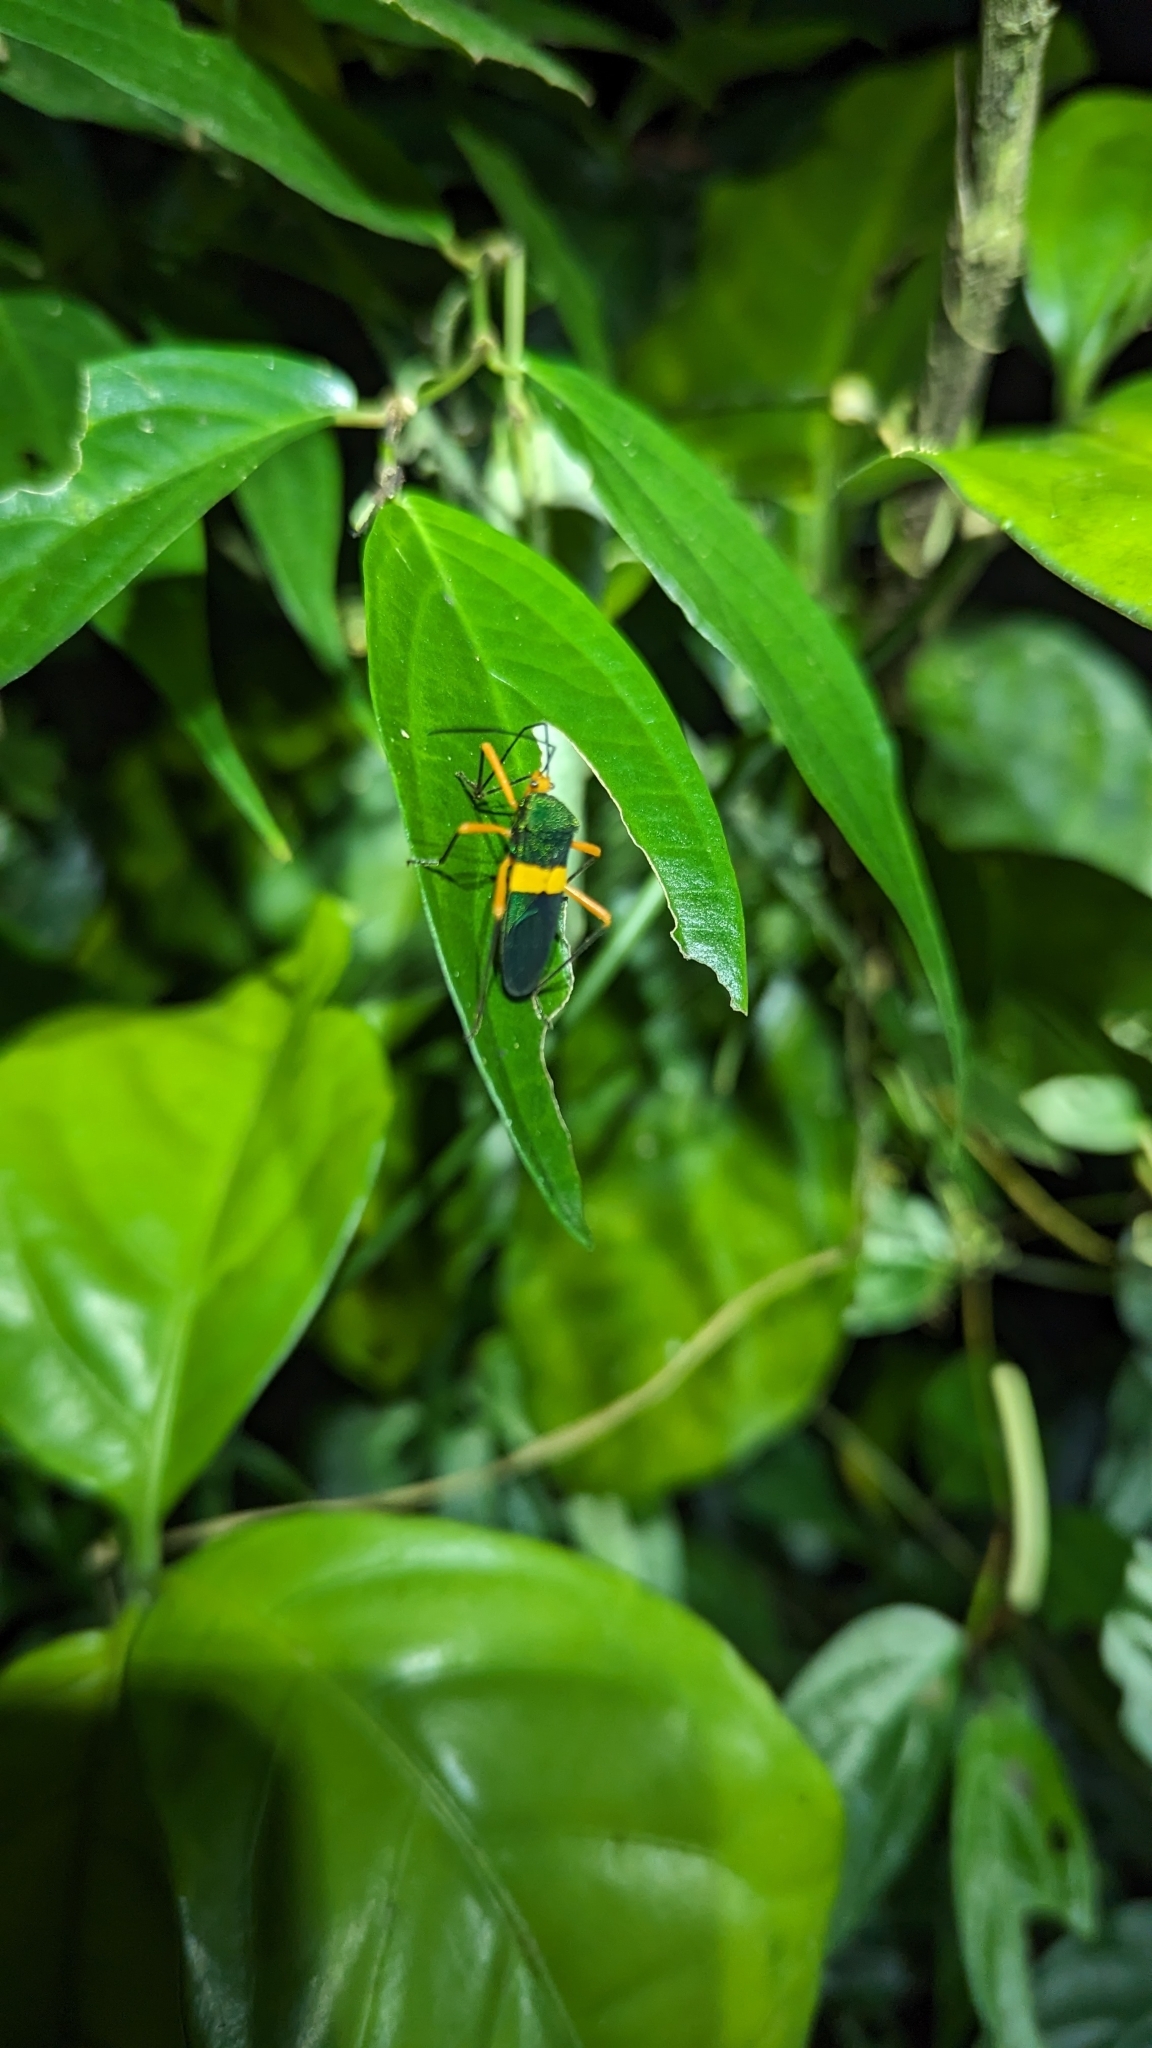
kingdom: Animalia
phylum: Arthropoda
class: Insecta
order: Hemiptera
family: Coreidae
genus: Paryphes
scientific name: Paryphes blandus
